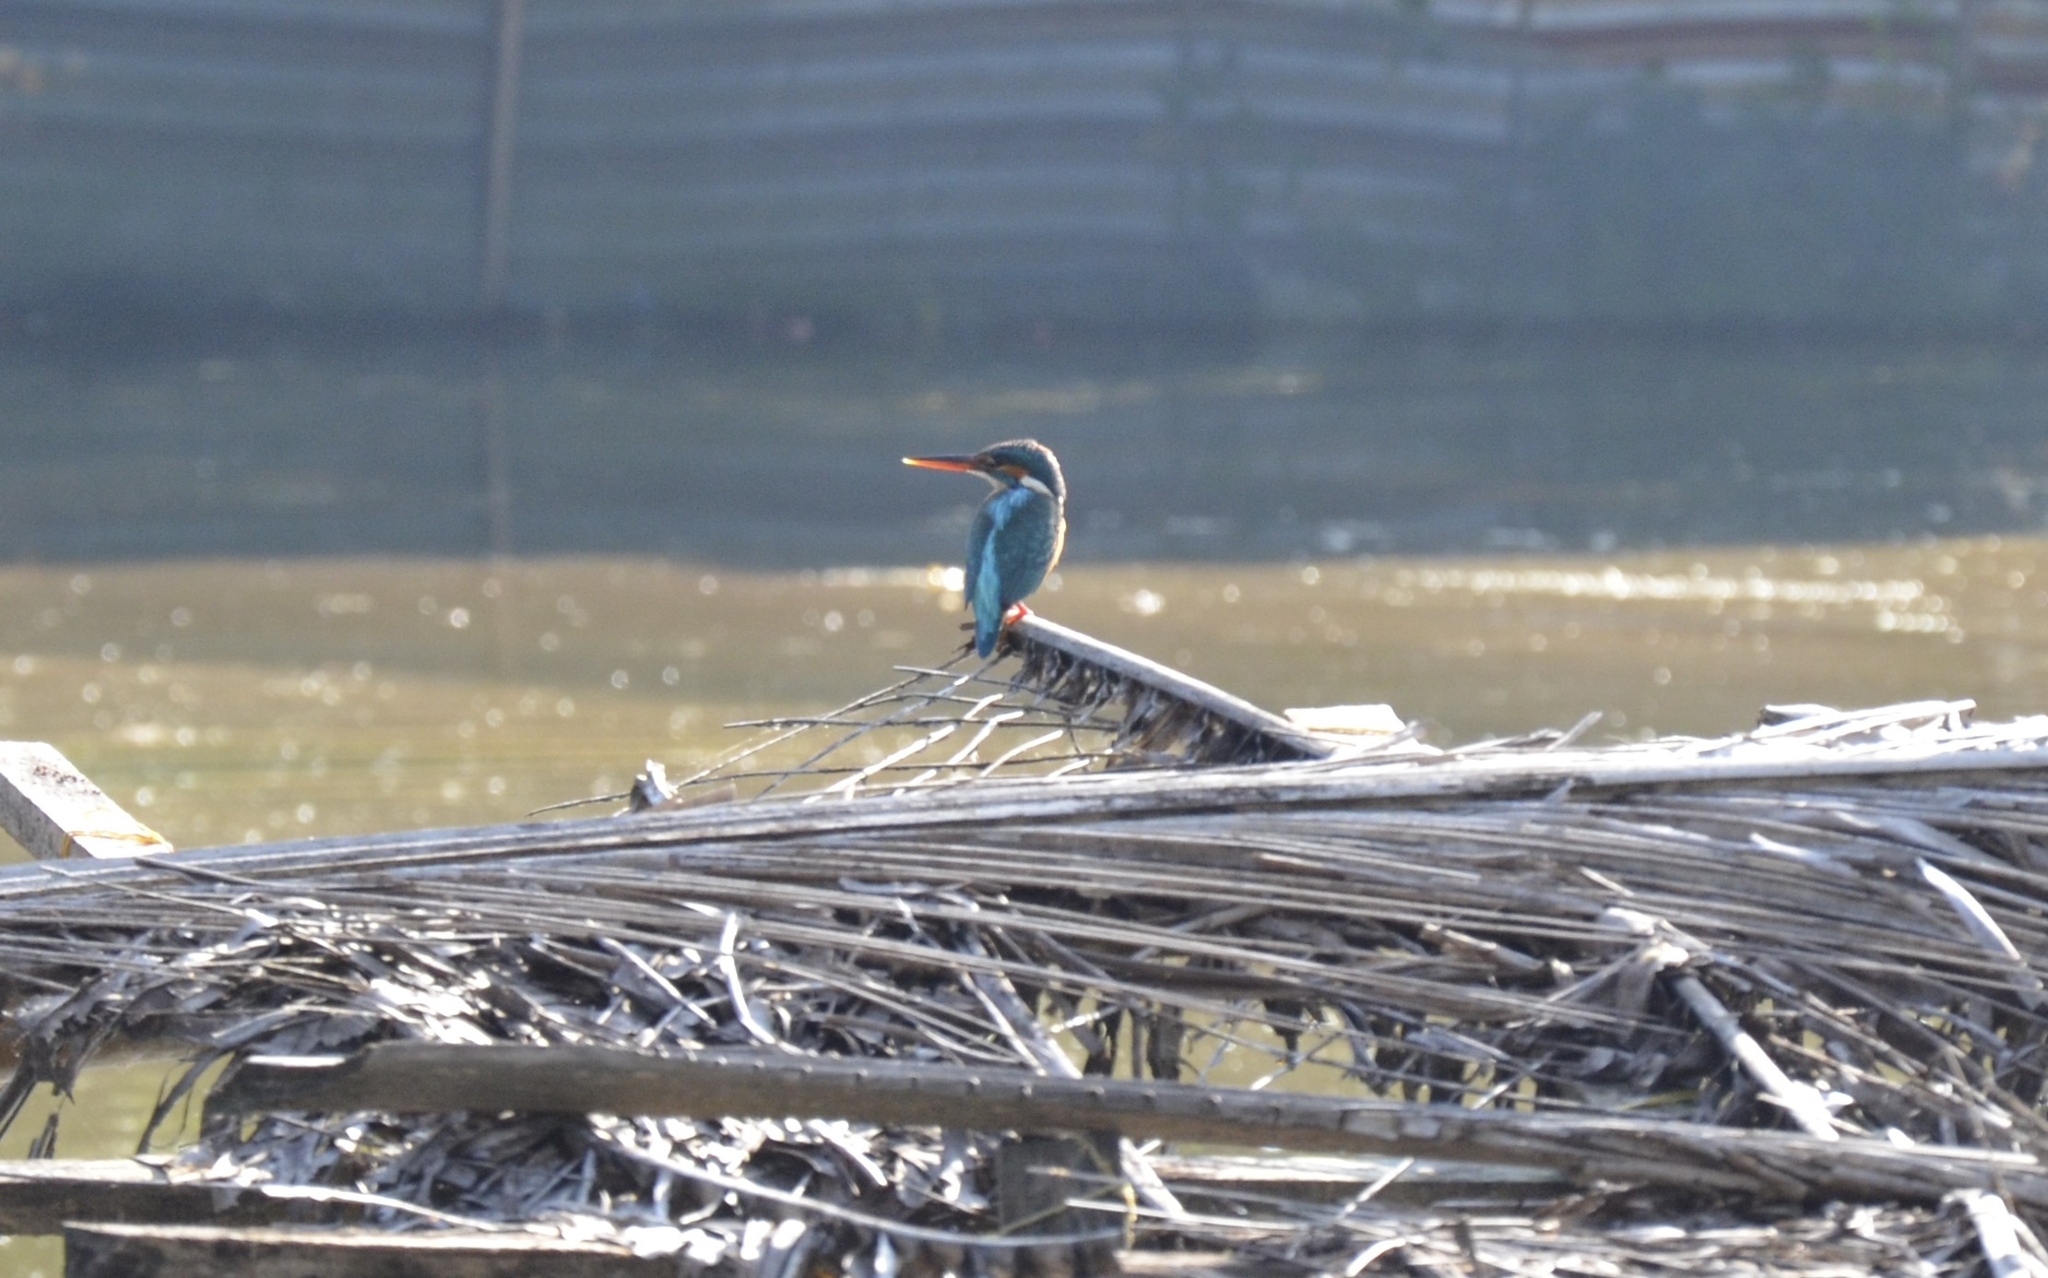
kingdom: Animalia
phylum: Chordata
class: Aves
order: Coraciiformes
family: Alcedinidae
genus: Alcedo
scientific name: Alcedo atthis
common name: Common kingfisher
